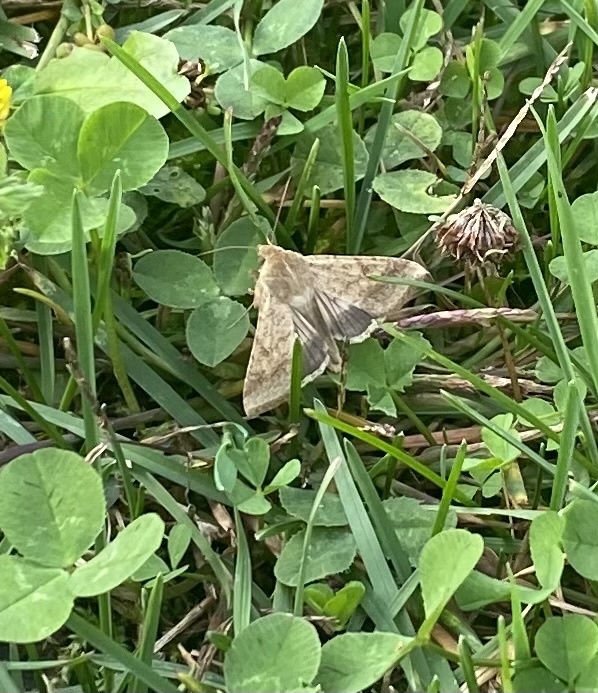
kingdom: Animalia
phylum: Arthropoda
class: Insecta
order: Lepidoptera
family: Noctuidae
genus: Helicoverpa
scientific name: Helicoverpa armigera
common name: Cotton bollworm
